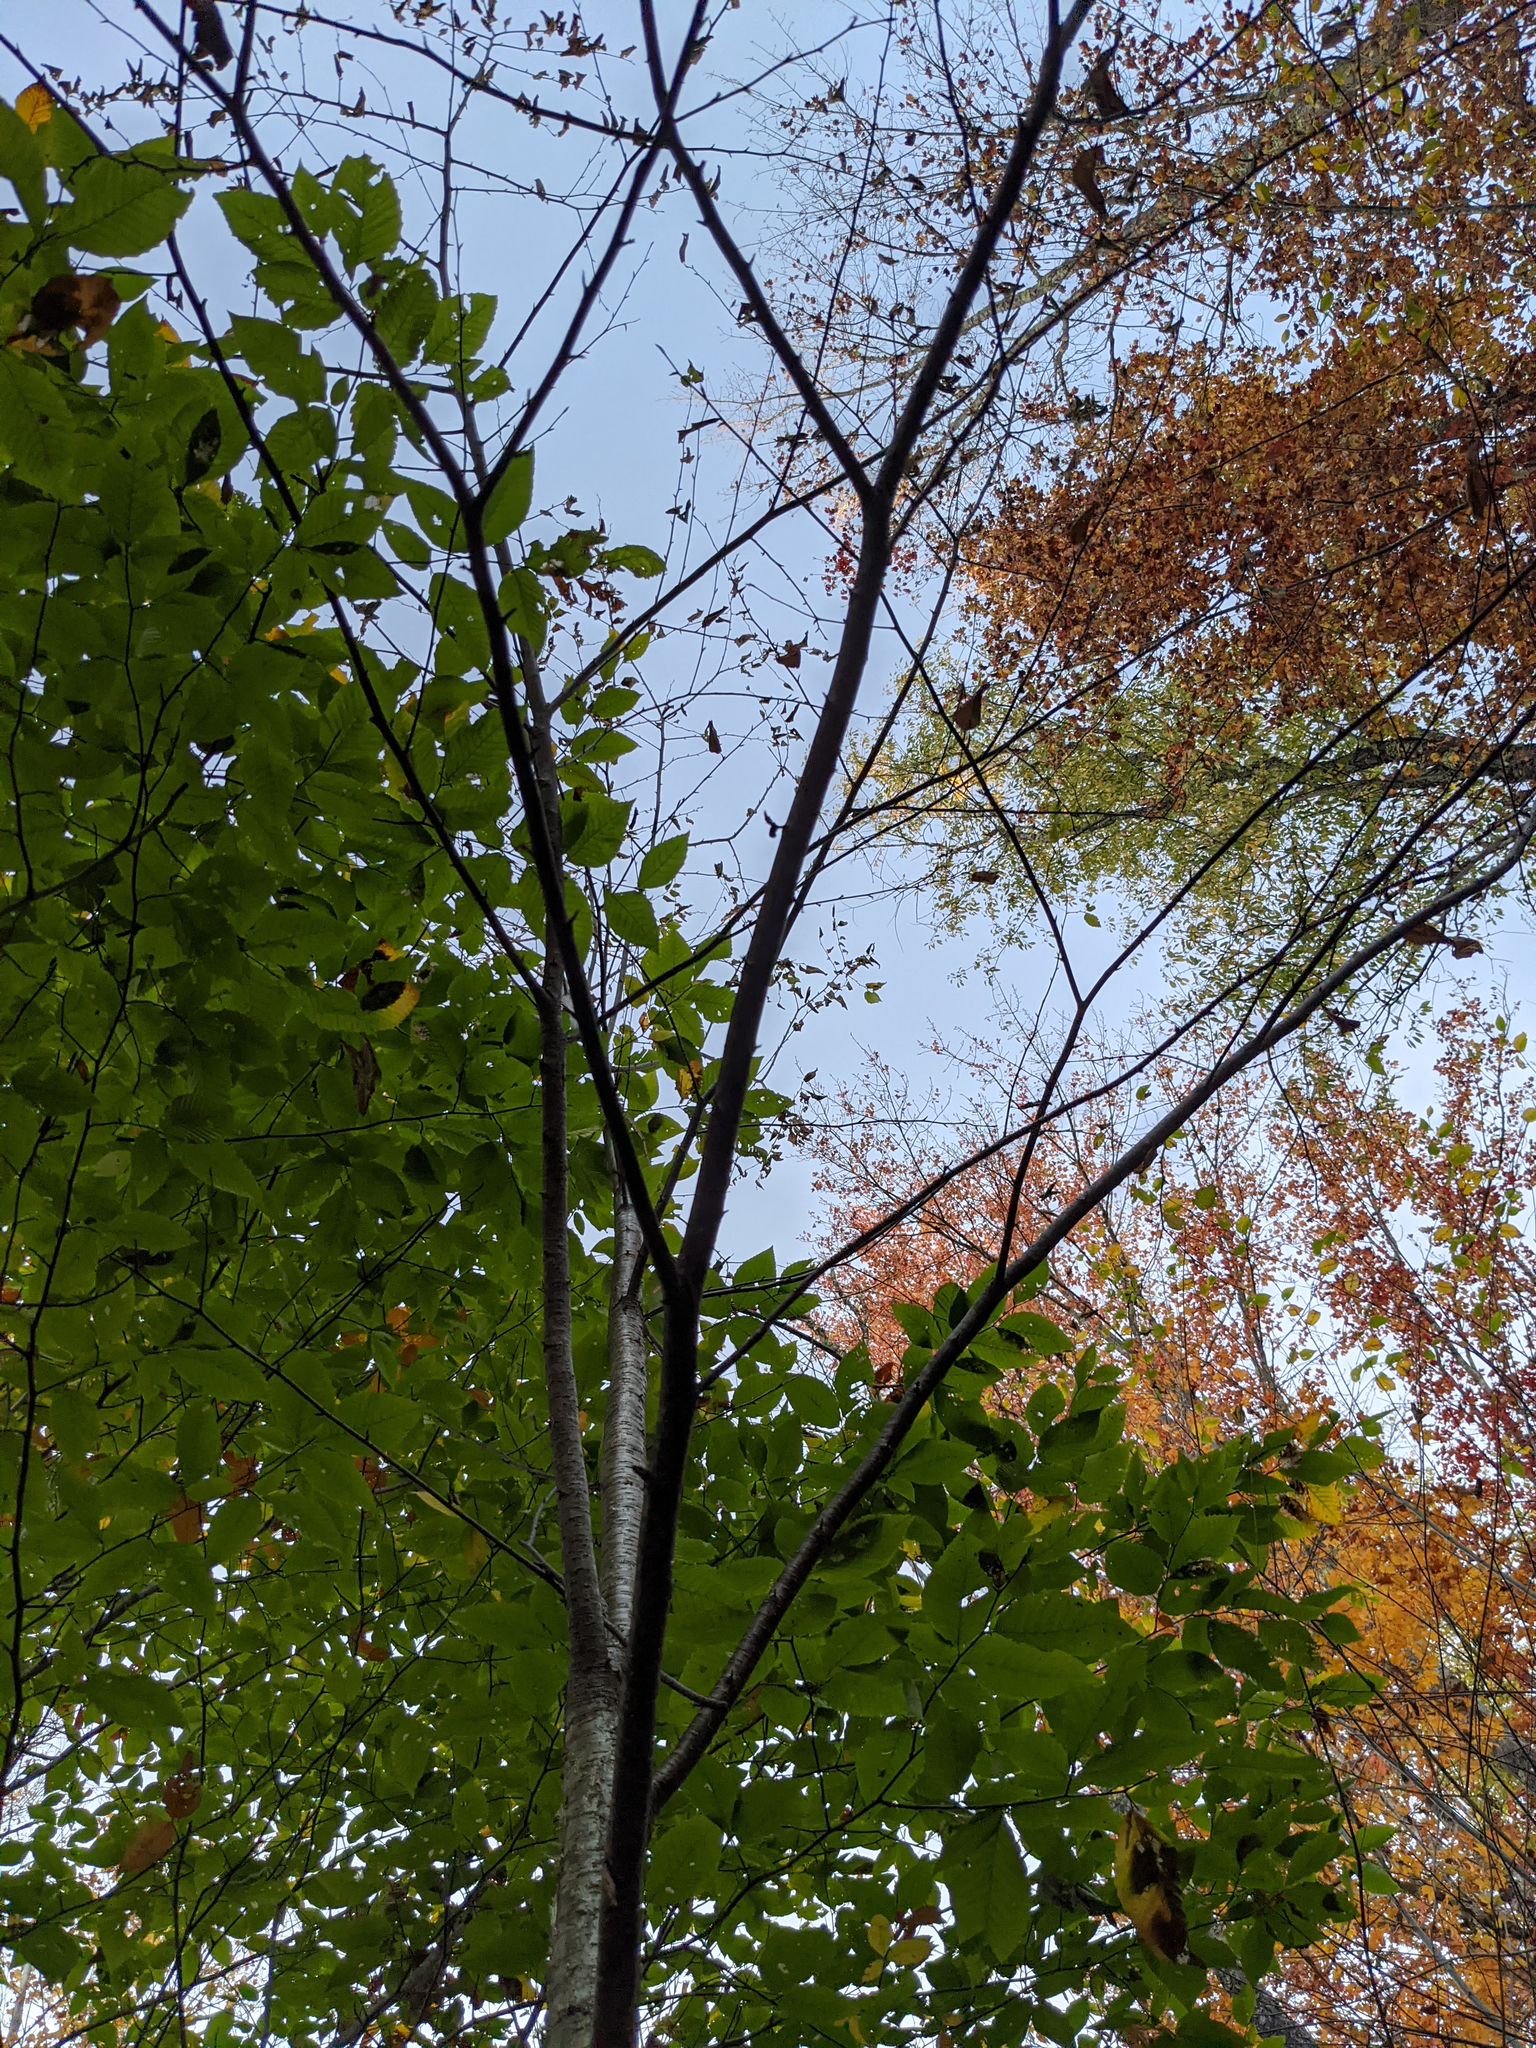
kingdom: Plantae
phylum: Tracheophyta
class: Magnoliopsida
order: Fagales
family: Betulaceae
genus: Betula
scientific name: Betula alleghaniensis
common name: Yellow birch
